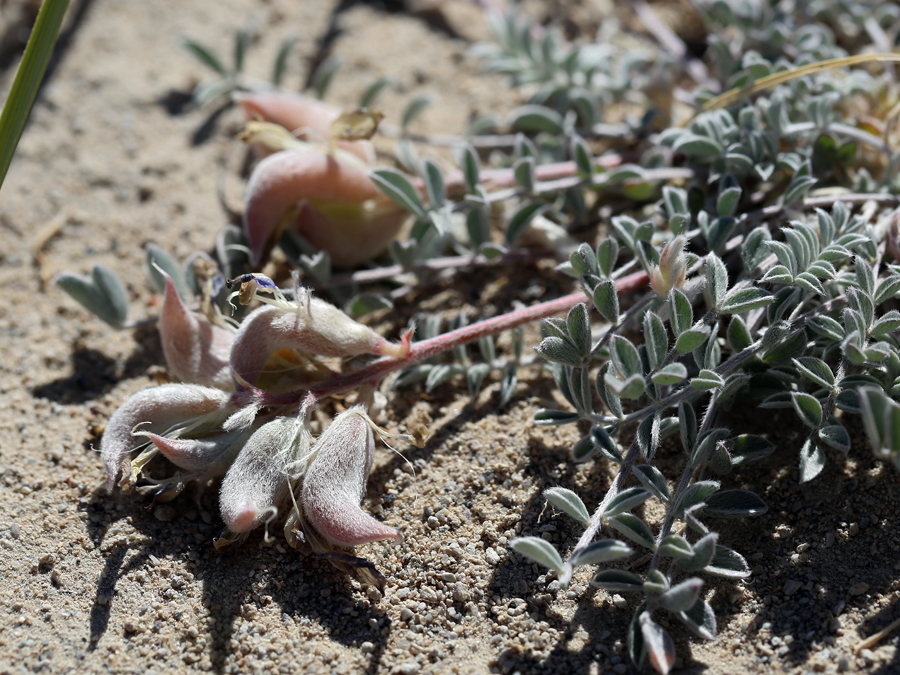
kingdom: Plantae
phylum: Tracheophyta
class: Magnoliopsida
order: Fabales
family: Fabaceae
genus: Astragalus
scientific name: Astragalus argophyllus
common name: Silverleaf milk-vetch
